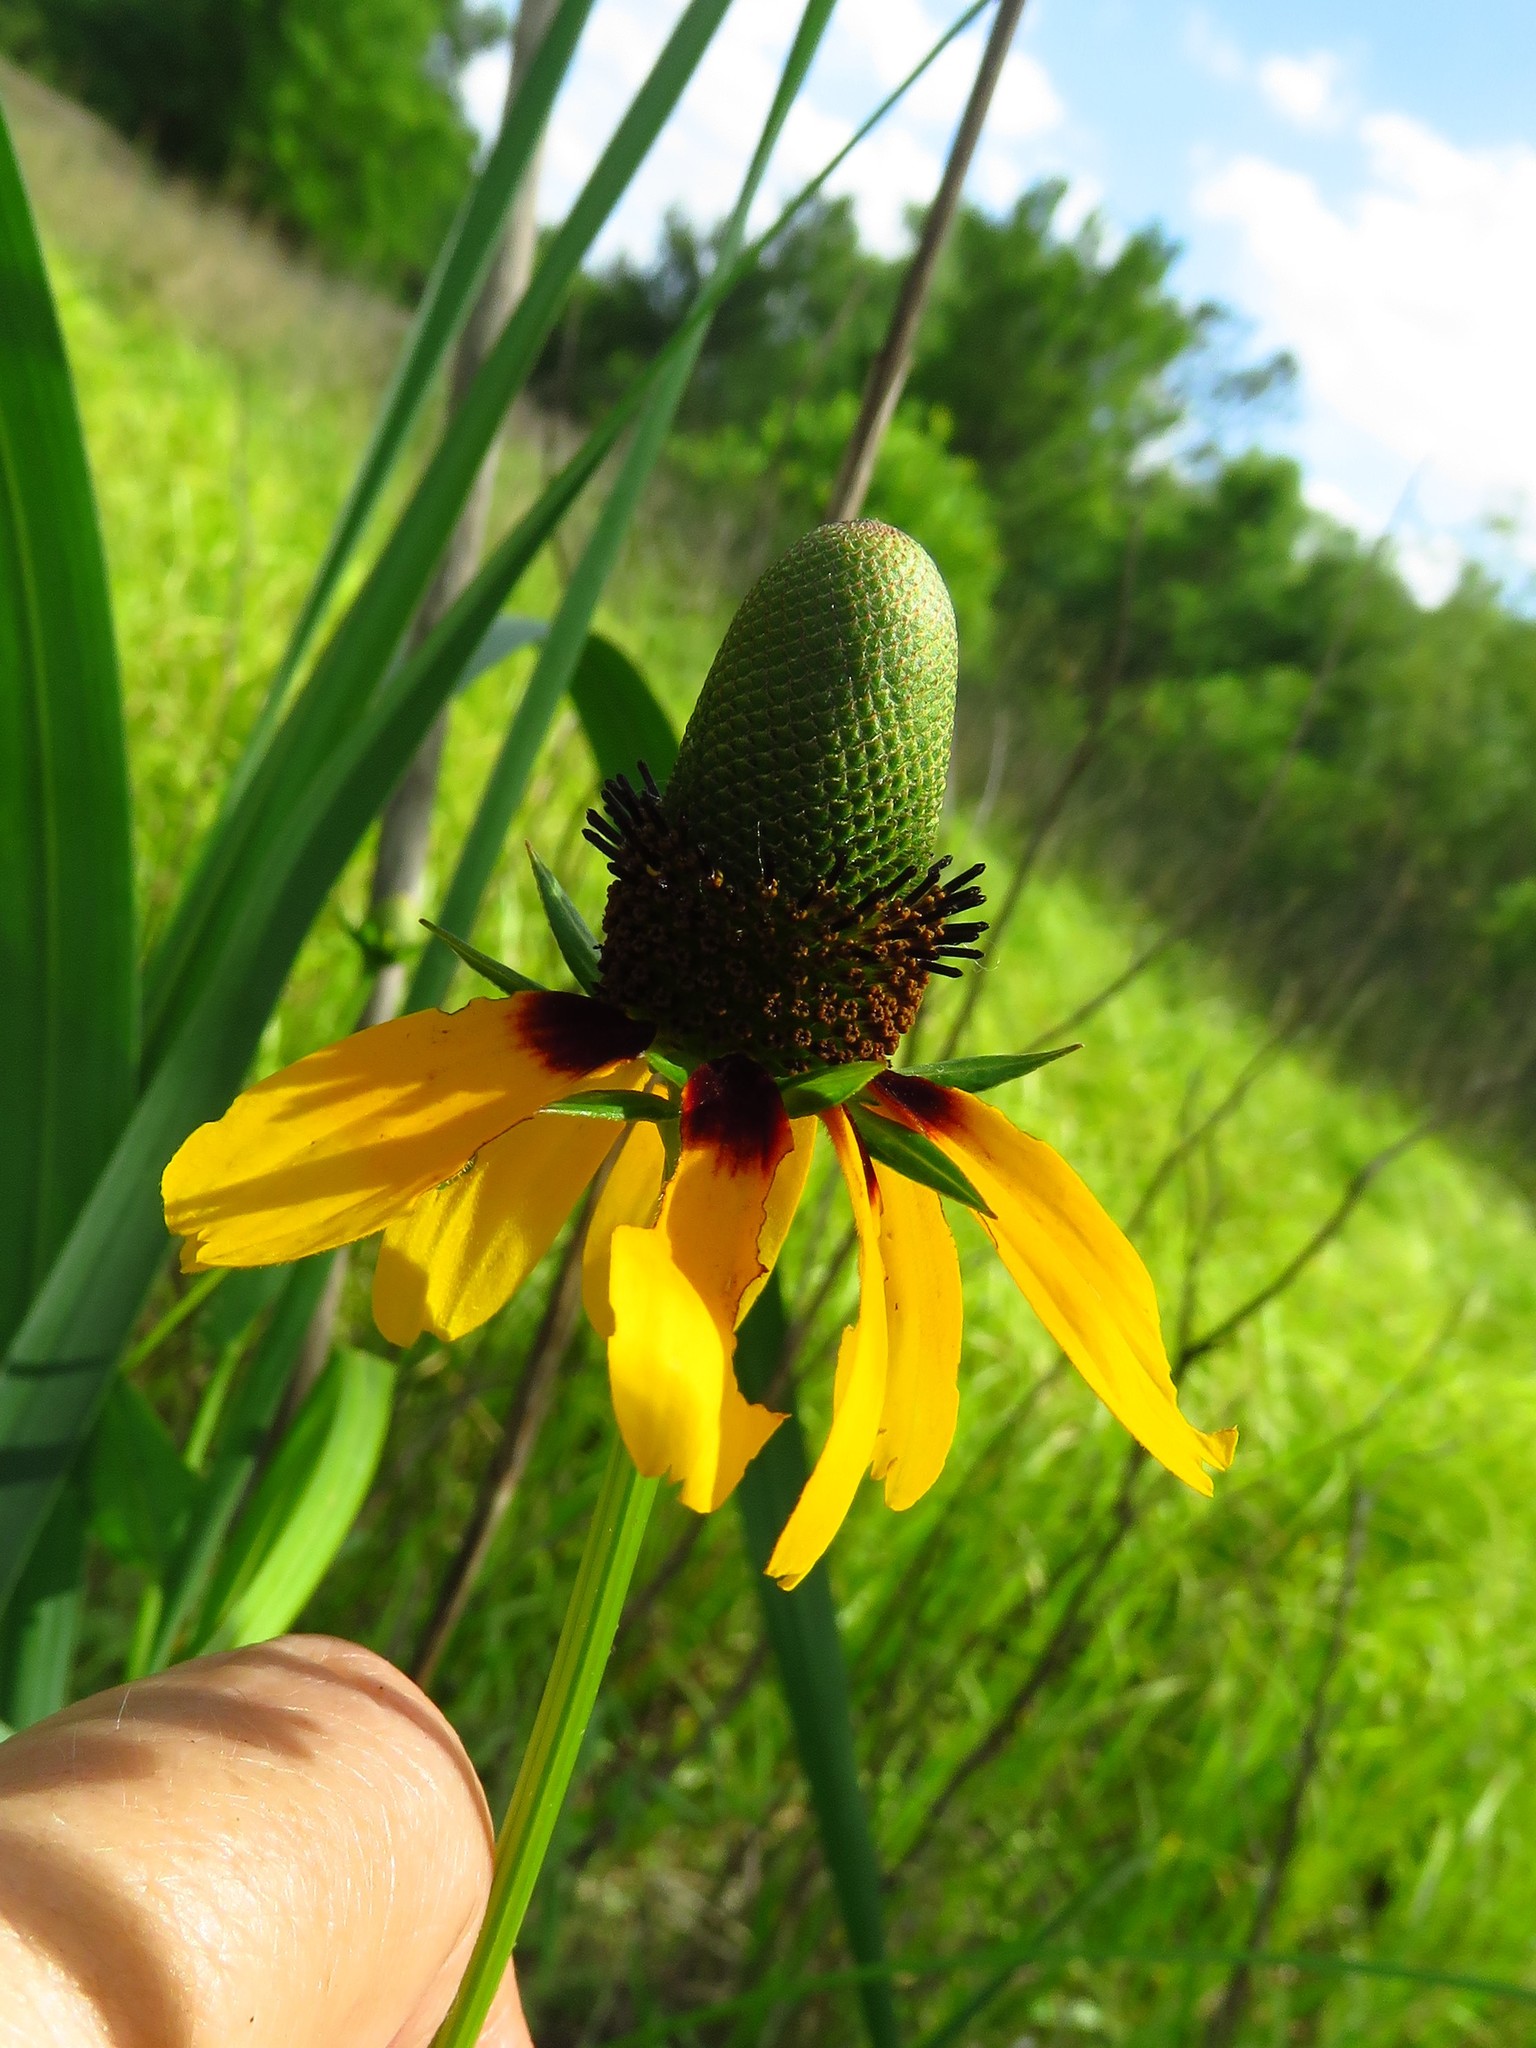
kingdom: Plantae
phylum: Tracheophyta
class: Magnoliopsida
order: Asterales
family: Asteraceae
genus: Rudbeckia
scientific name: Rudbeckia amplexicaulis
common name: Clasping-leaf coneflower
